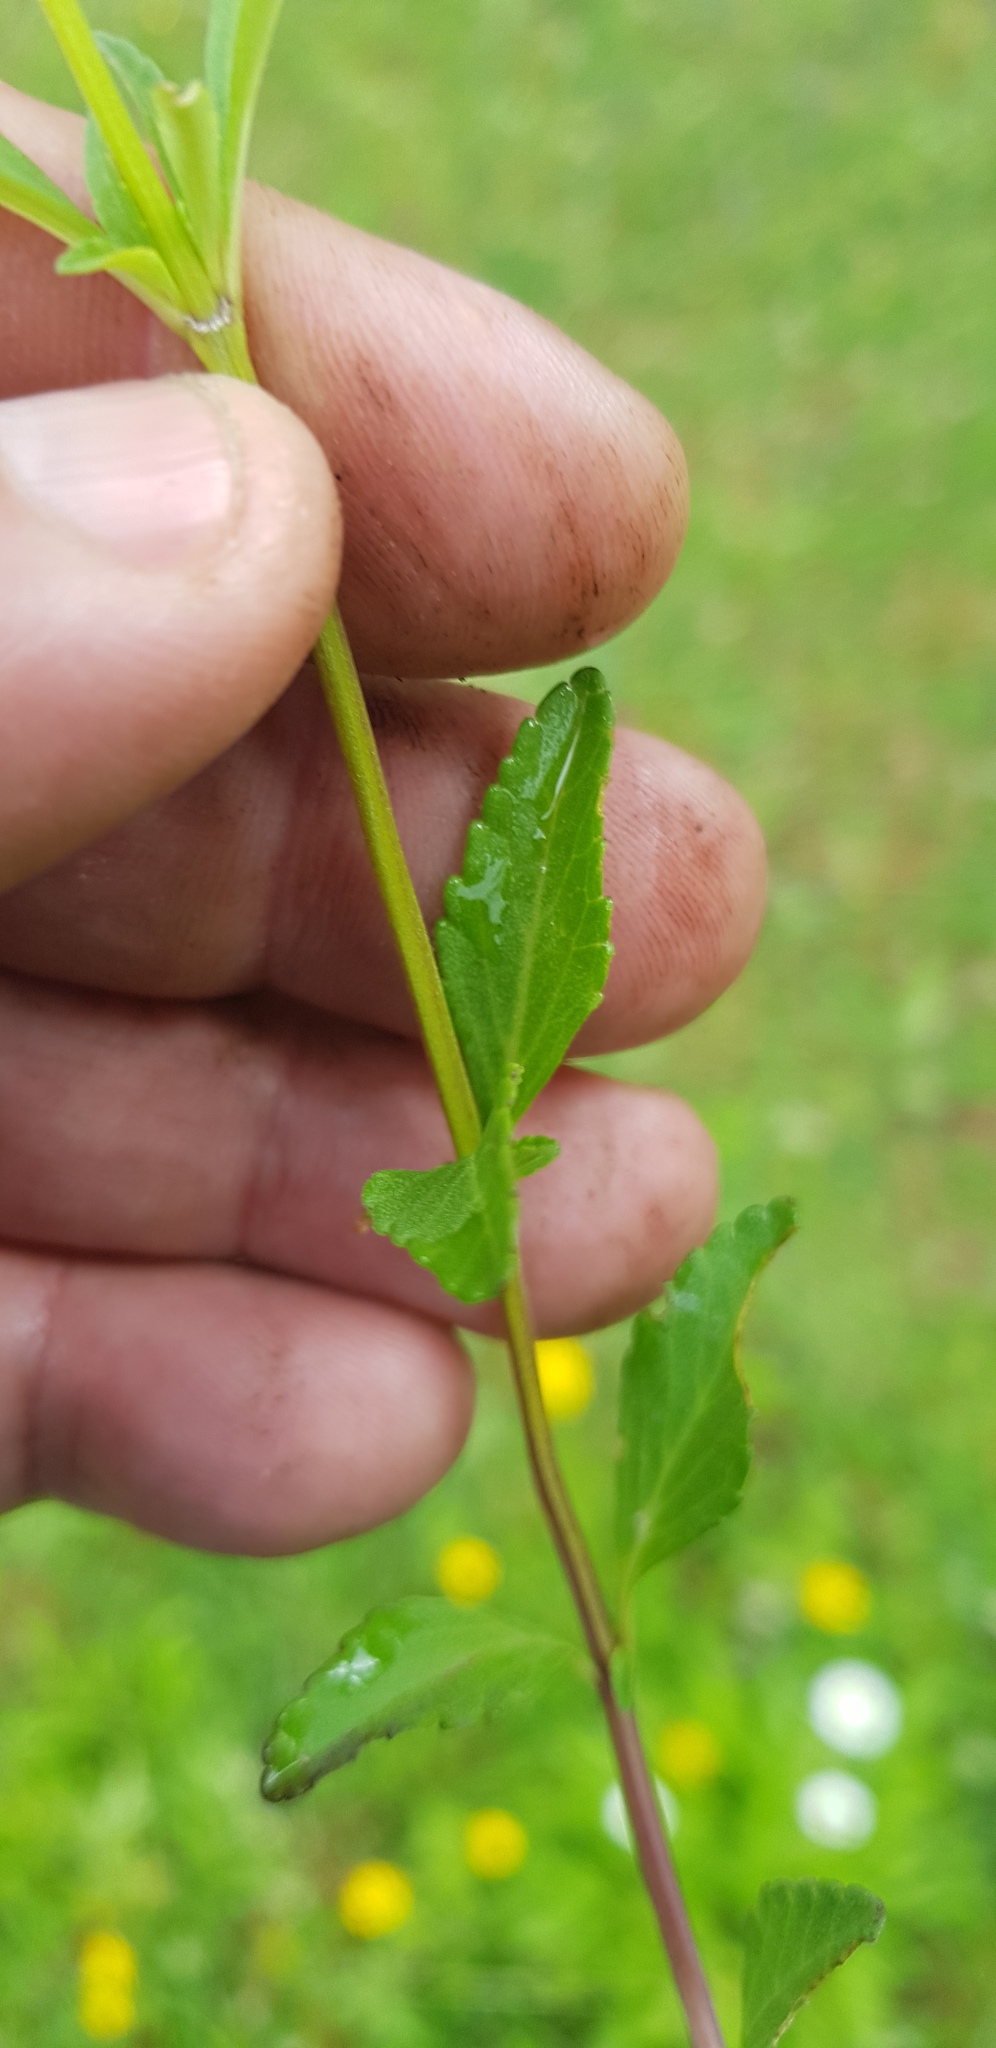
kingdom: Plantae
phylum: Tracheophyta
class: Magnoliopsida
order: Lamiales
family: Lamiaceae
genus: Salvia
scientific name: Salvia oblongifolia
